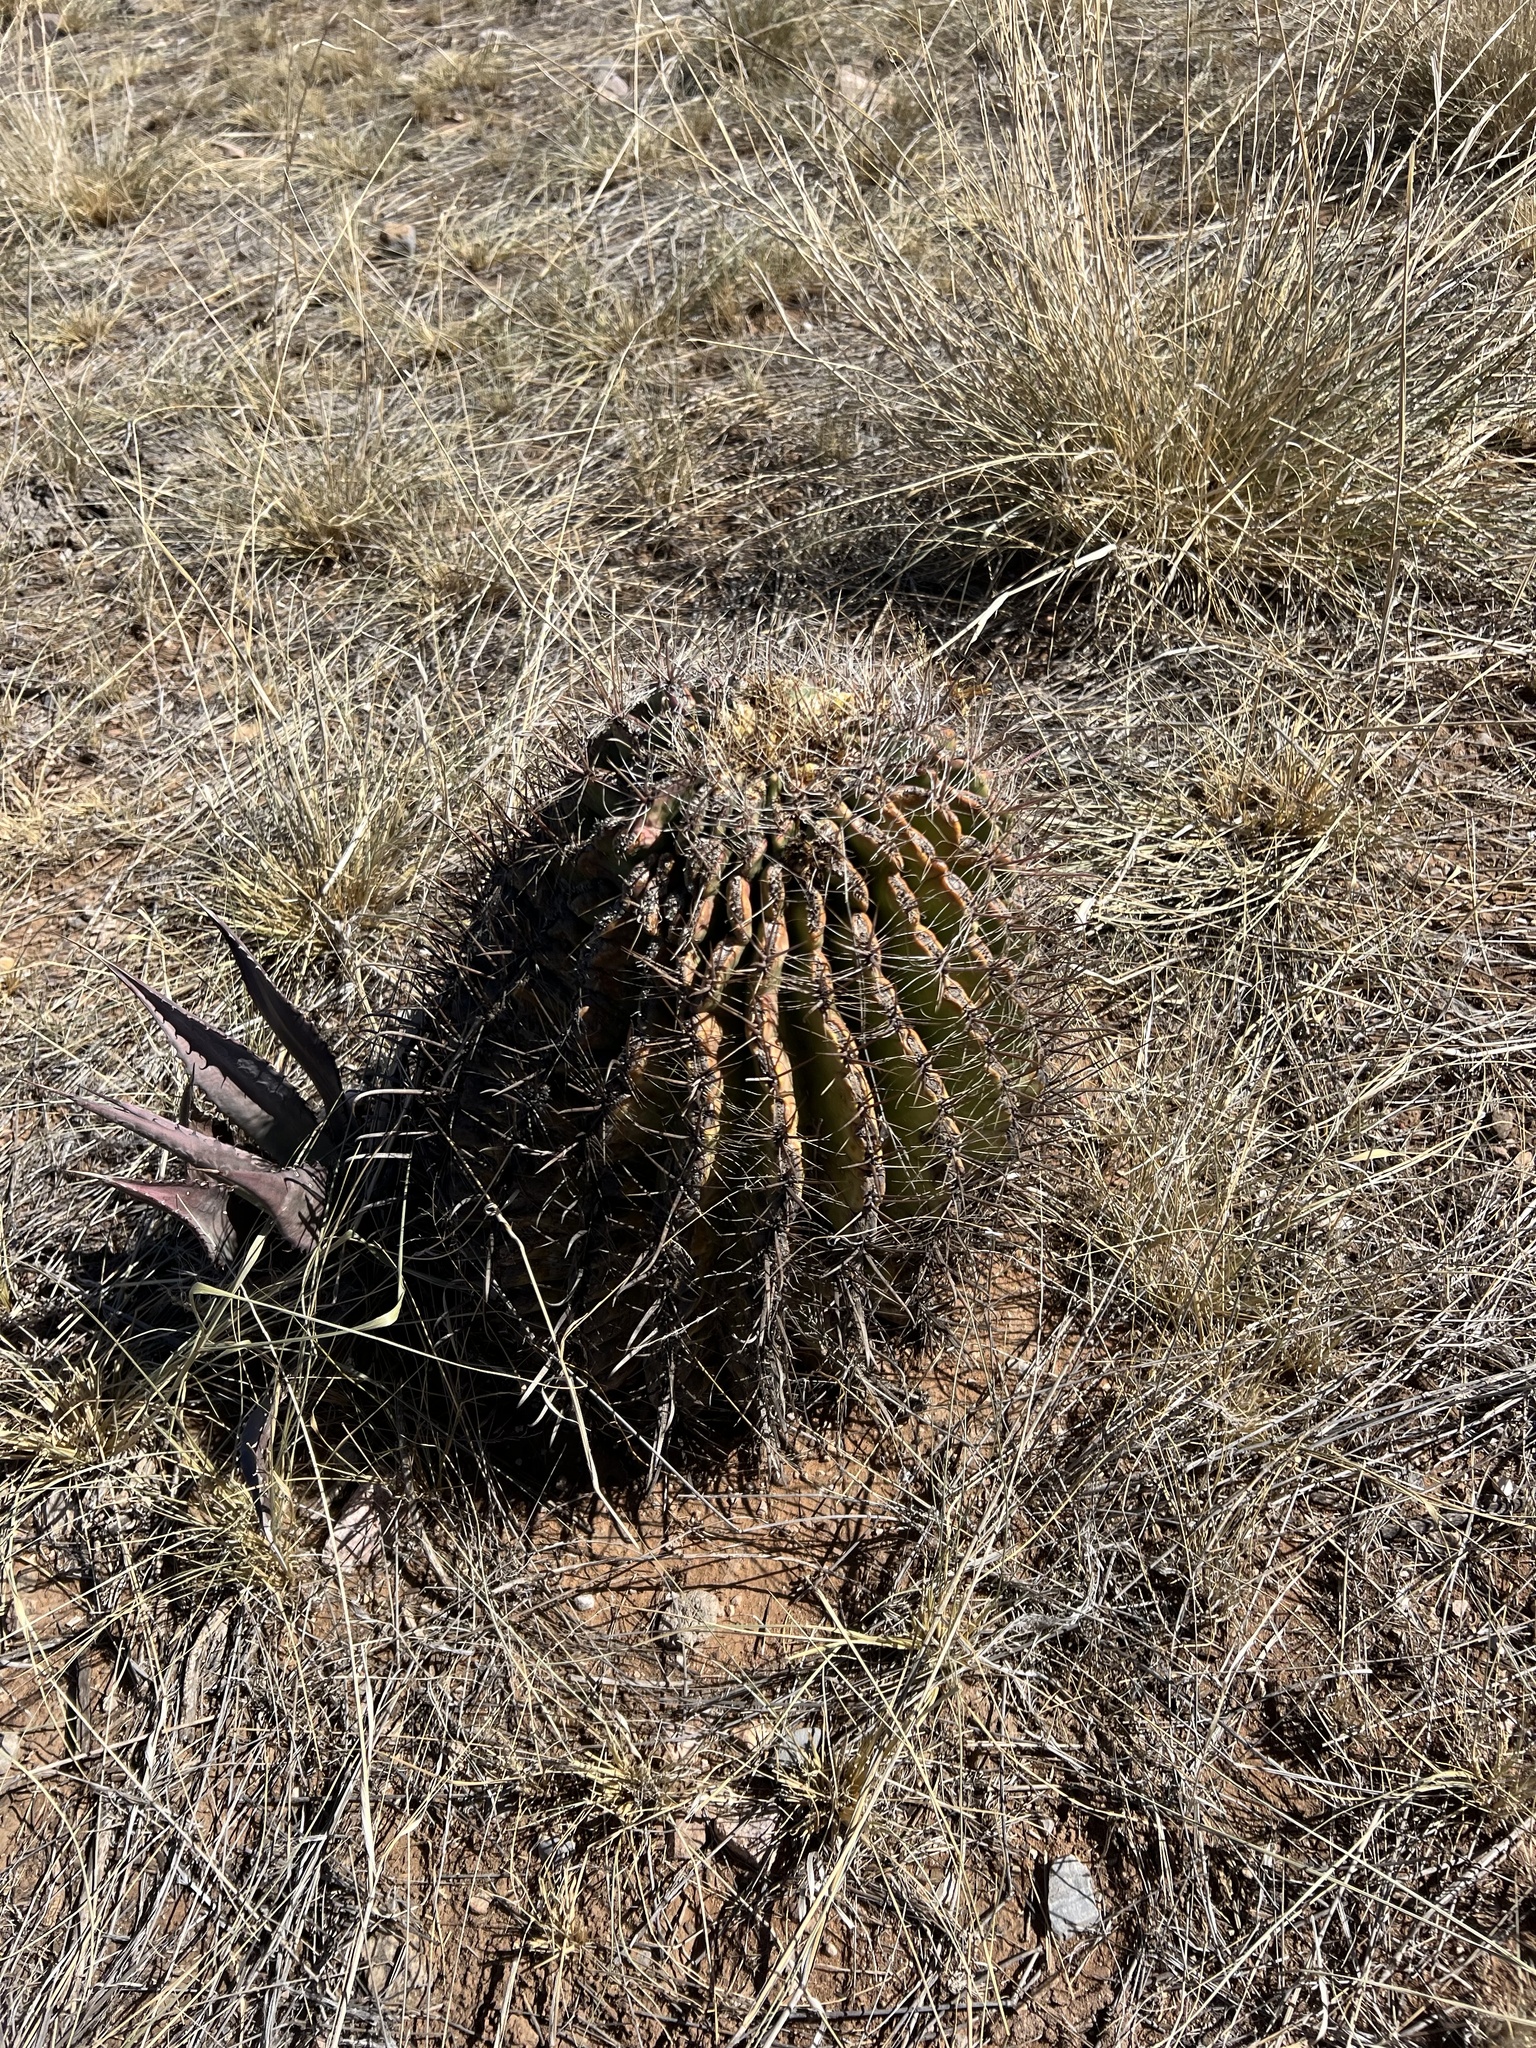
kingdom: Plantae
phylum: Tracheophyta
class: Magnoliopsida
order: Caryophyllales
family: Cactaceae
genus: Ferocactus
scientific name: Ferocactus wislizeni
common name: Candy barrel cactus
